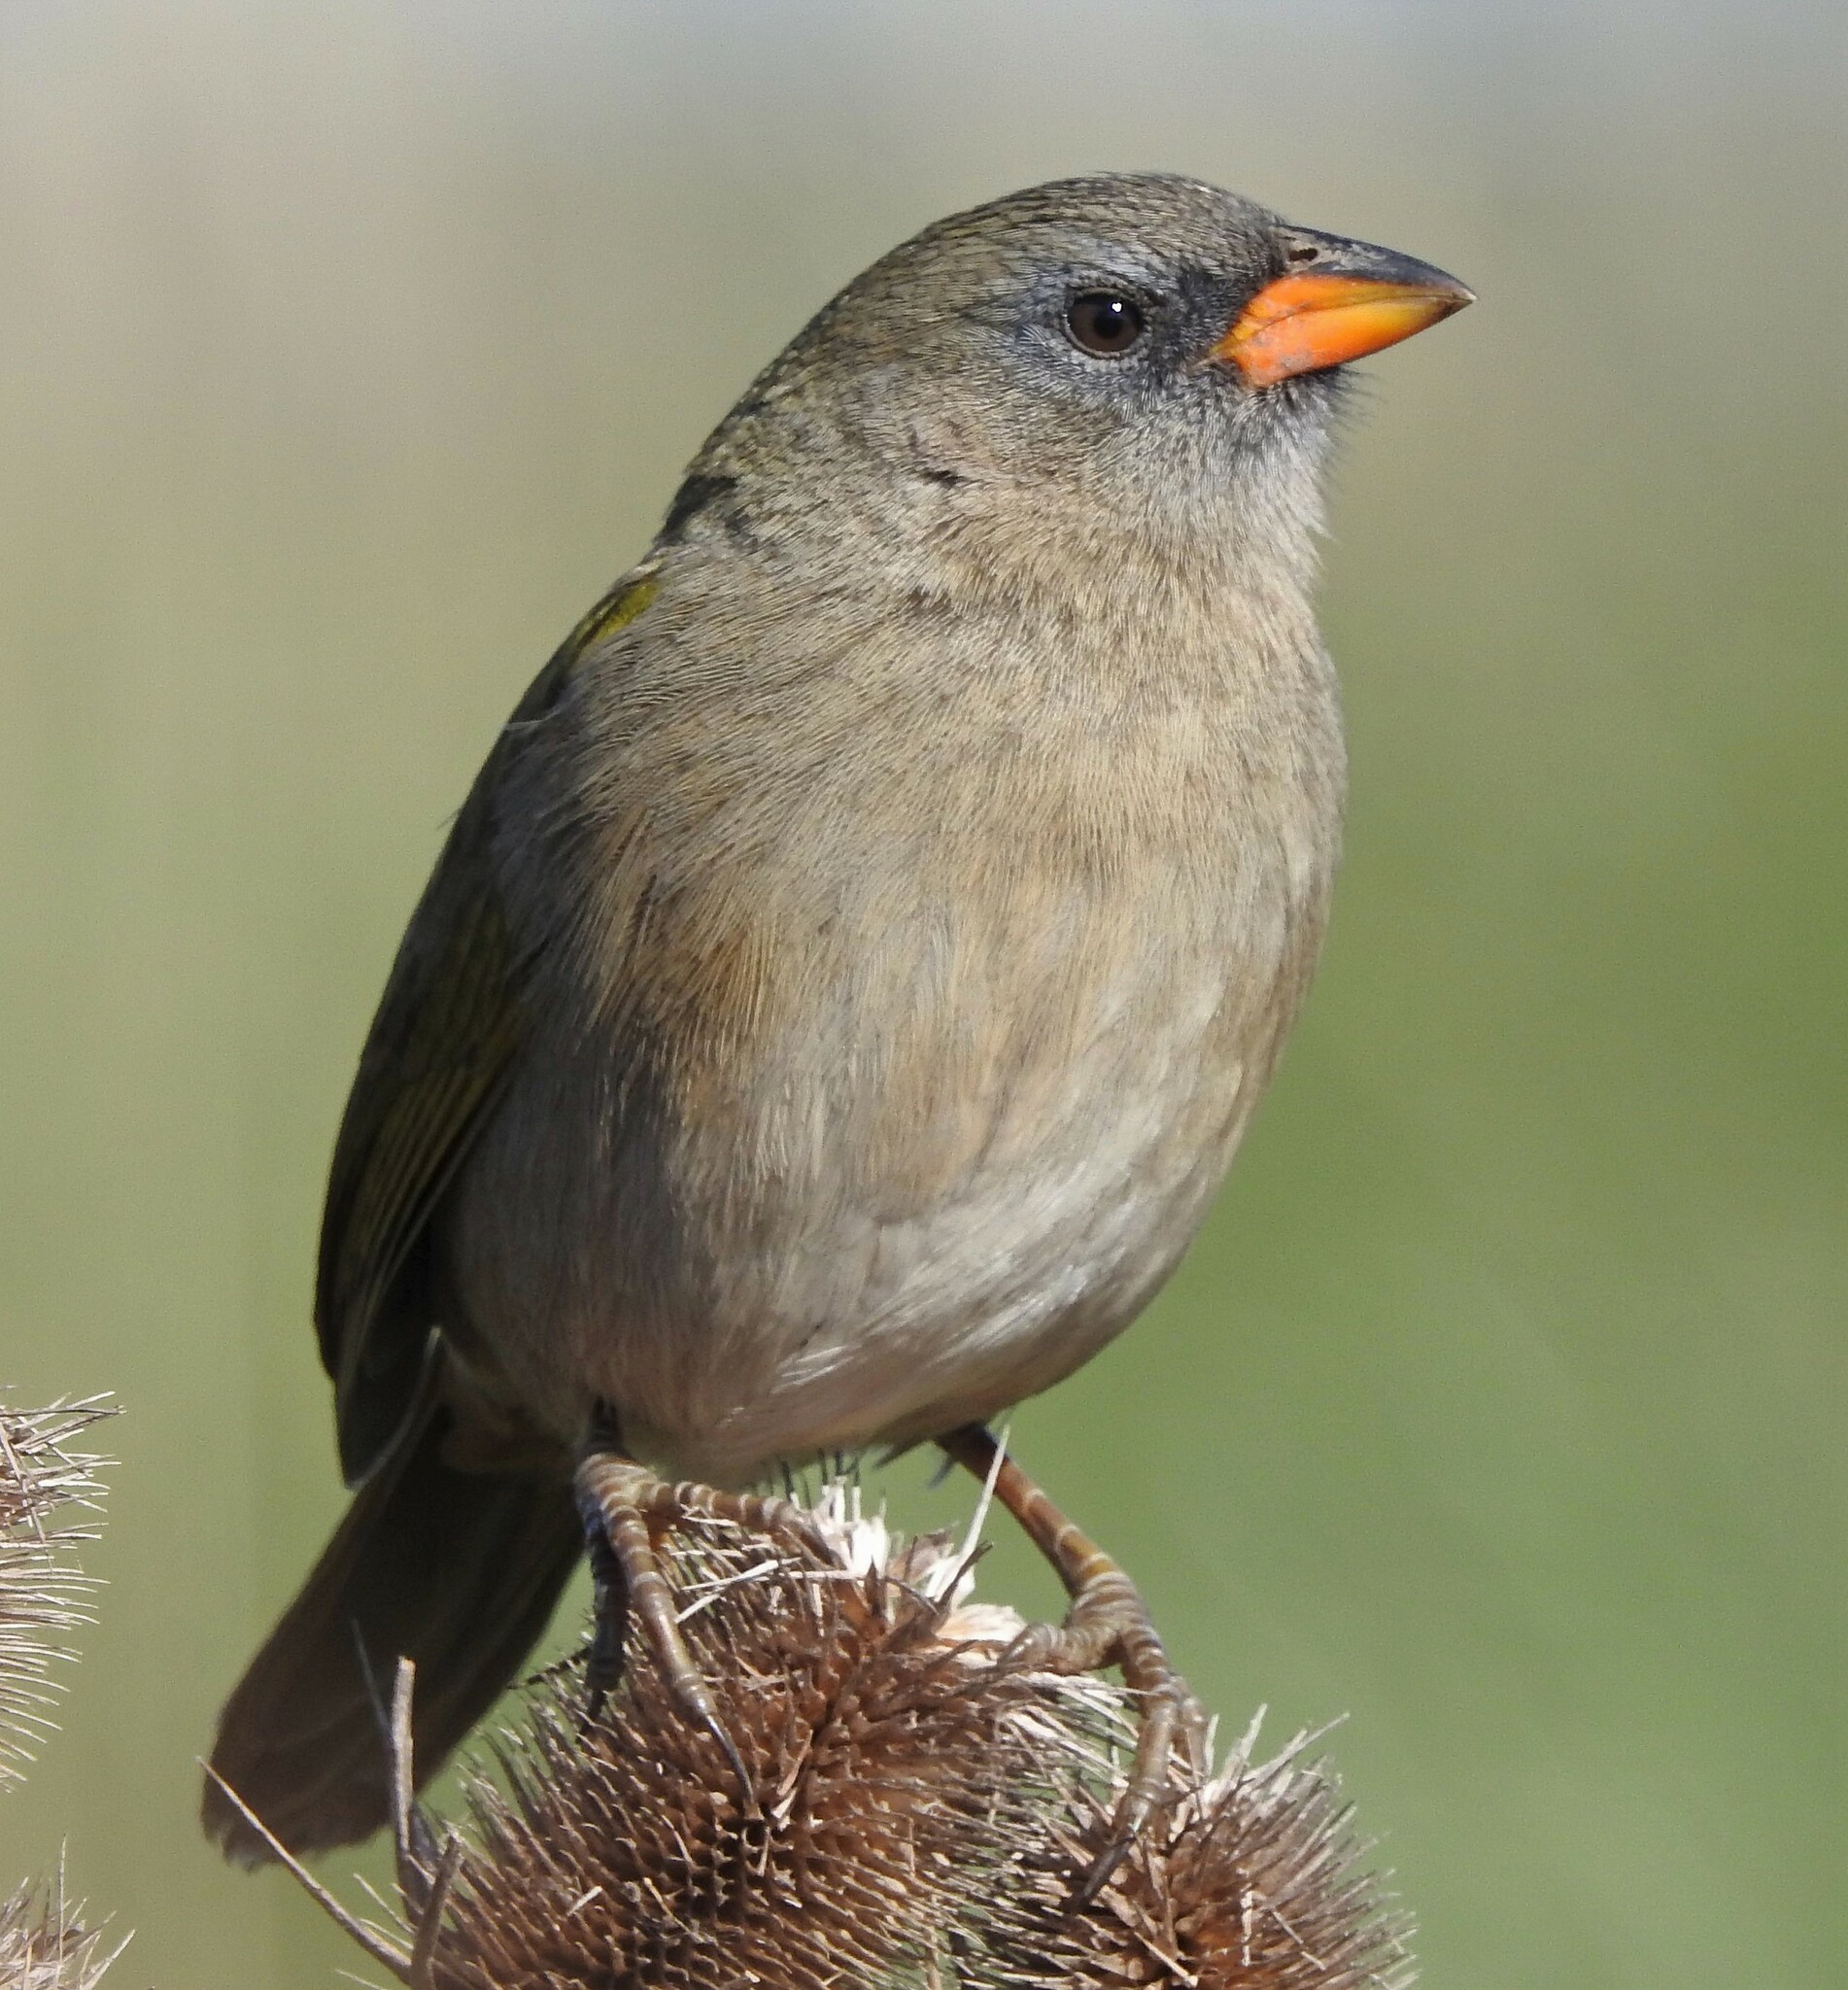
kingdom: Animalia
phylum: Chordata
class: Aves
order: Passeriformes
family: Thraupidae
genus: Embernagra
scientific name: Embernagra platensis
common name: Pampa finch
